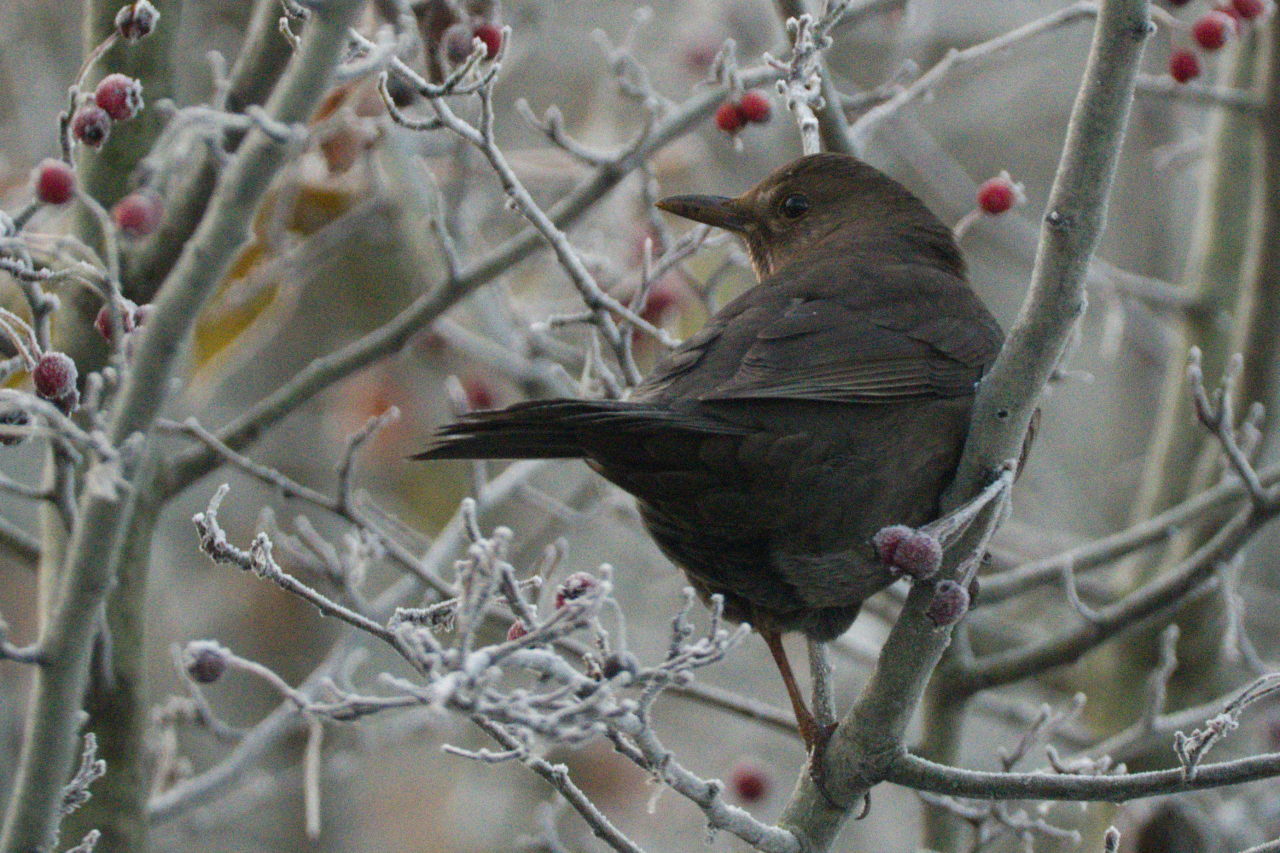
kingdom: Animalia
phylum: Chordata
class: Aves
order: Passeriformes
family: Turdidae
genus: Turdus
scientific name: Turdus merula
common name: Common blackbird
